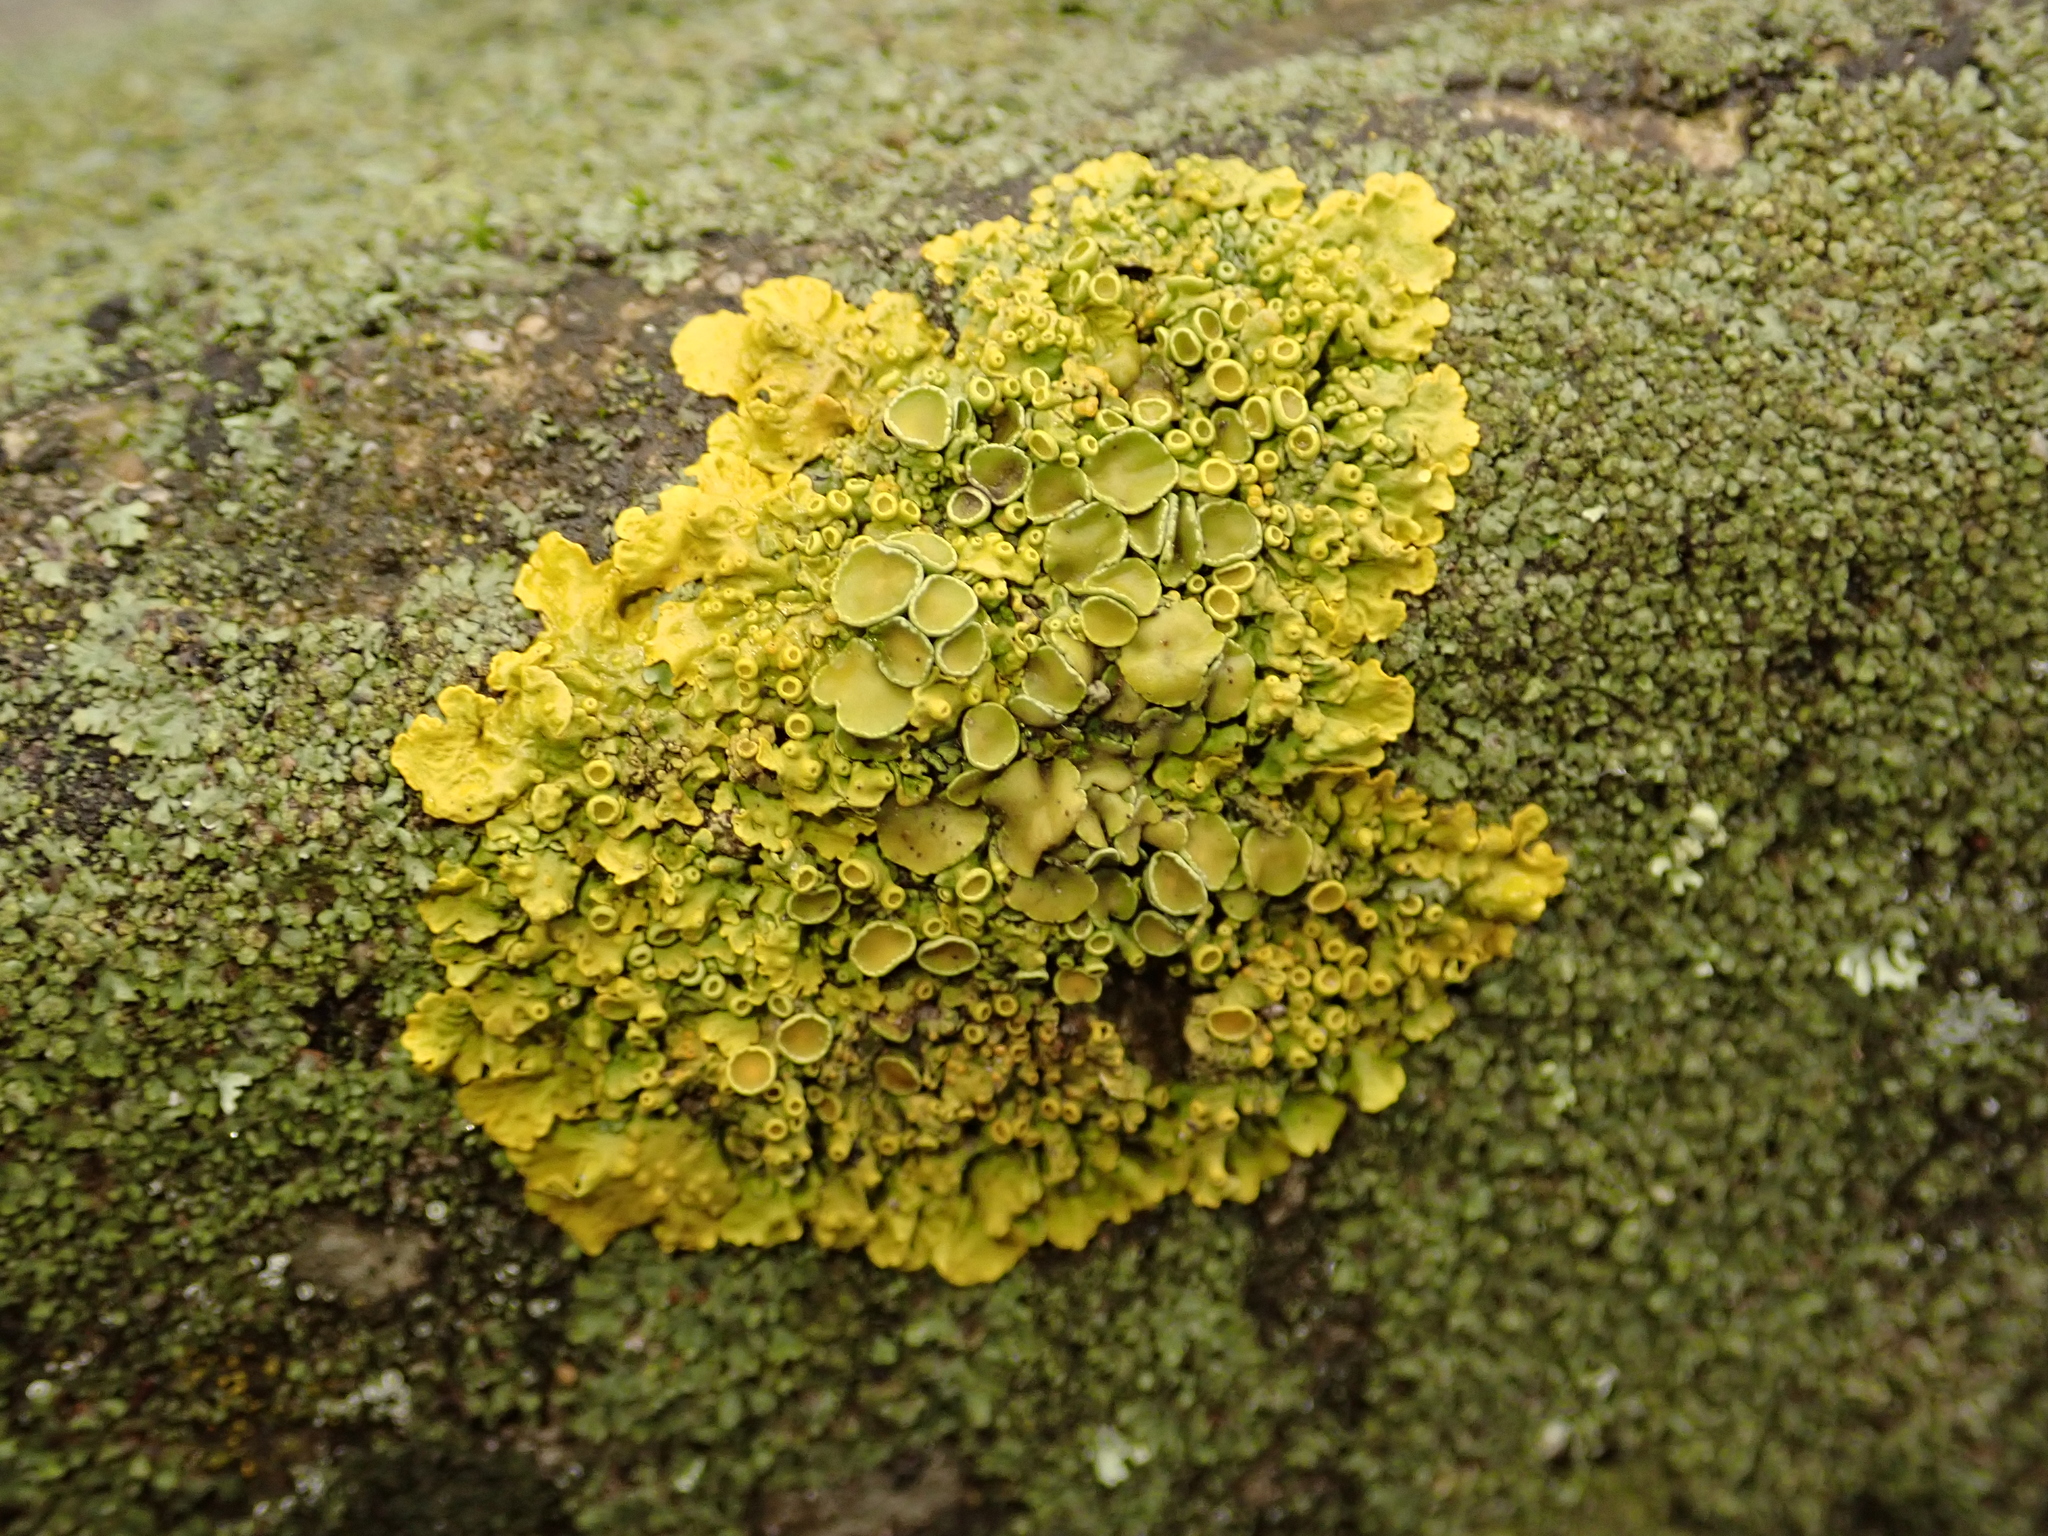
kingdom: Fungi
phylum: Ascomycota
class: Lecanoromycetes
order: Teloschistales
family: Teloschistaceae
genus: Xanthoria
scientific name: Xanthoria parietina
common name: Common orange lichen
